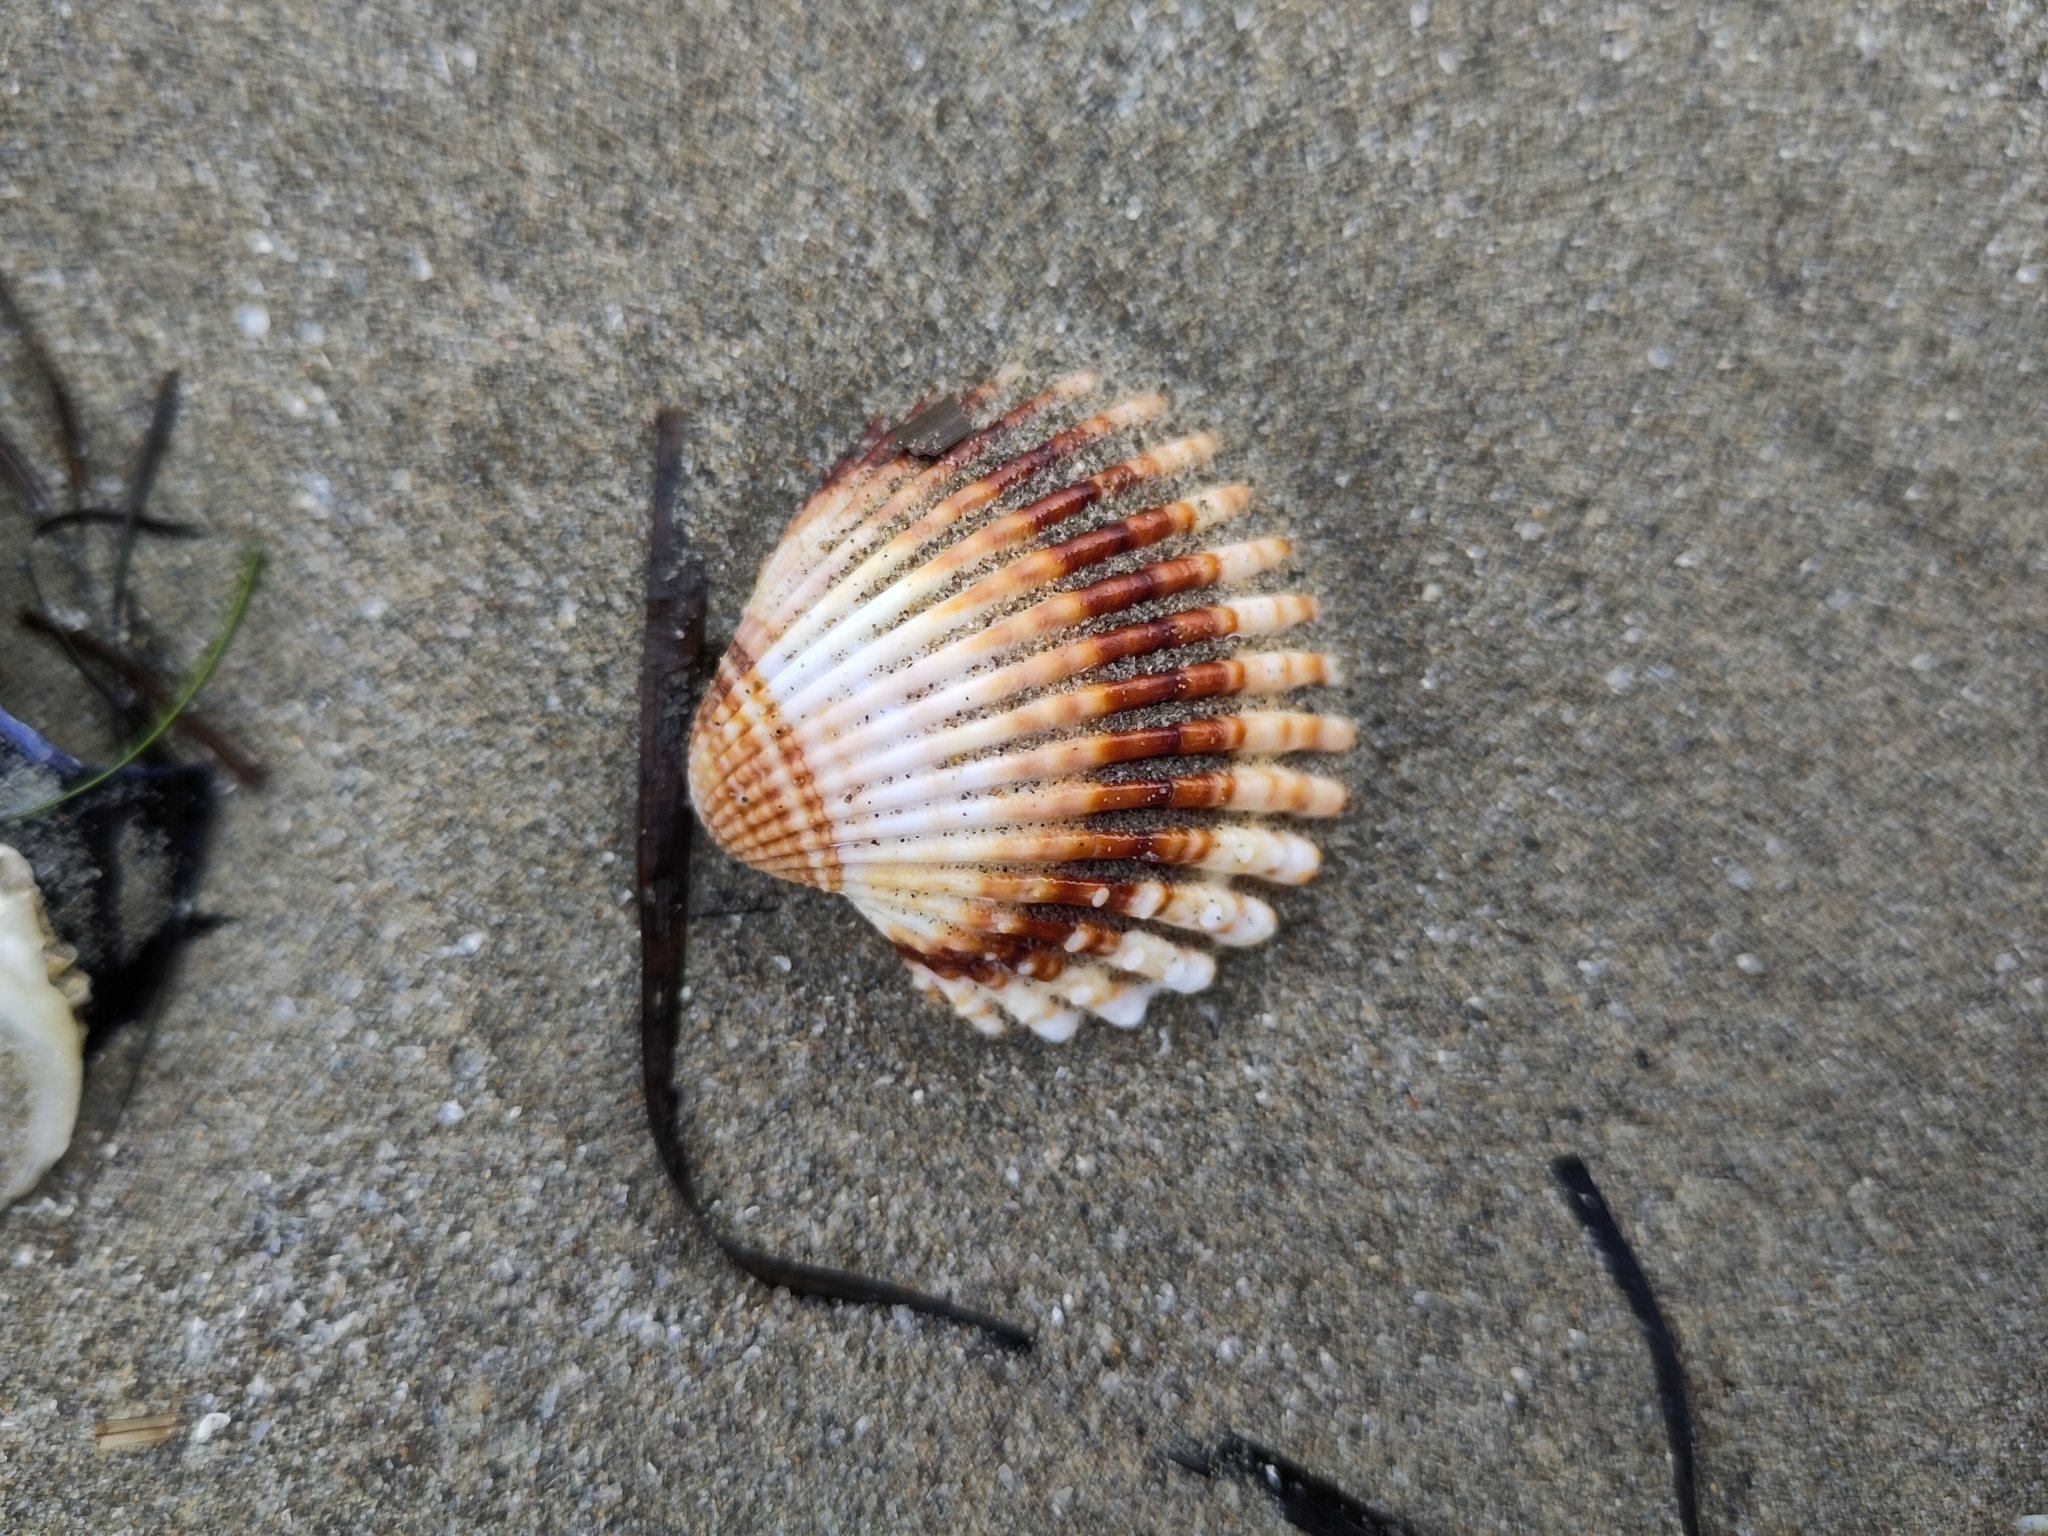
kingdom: Animalia
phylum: Mollusca
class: Bivalvia
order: Cardiida
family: Cardiidae
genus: Acanthocardia
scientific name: Acanthocardia tuberculata
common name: Rough cockle
